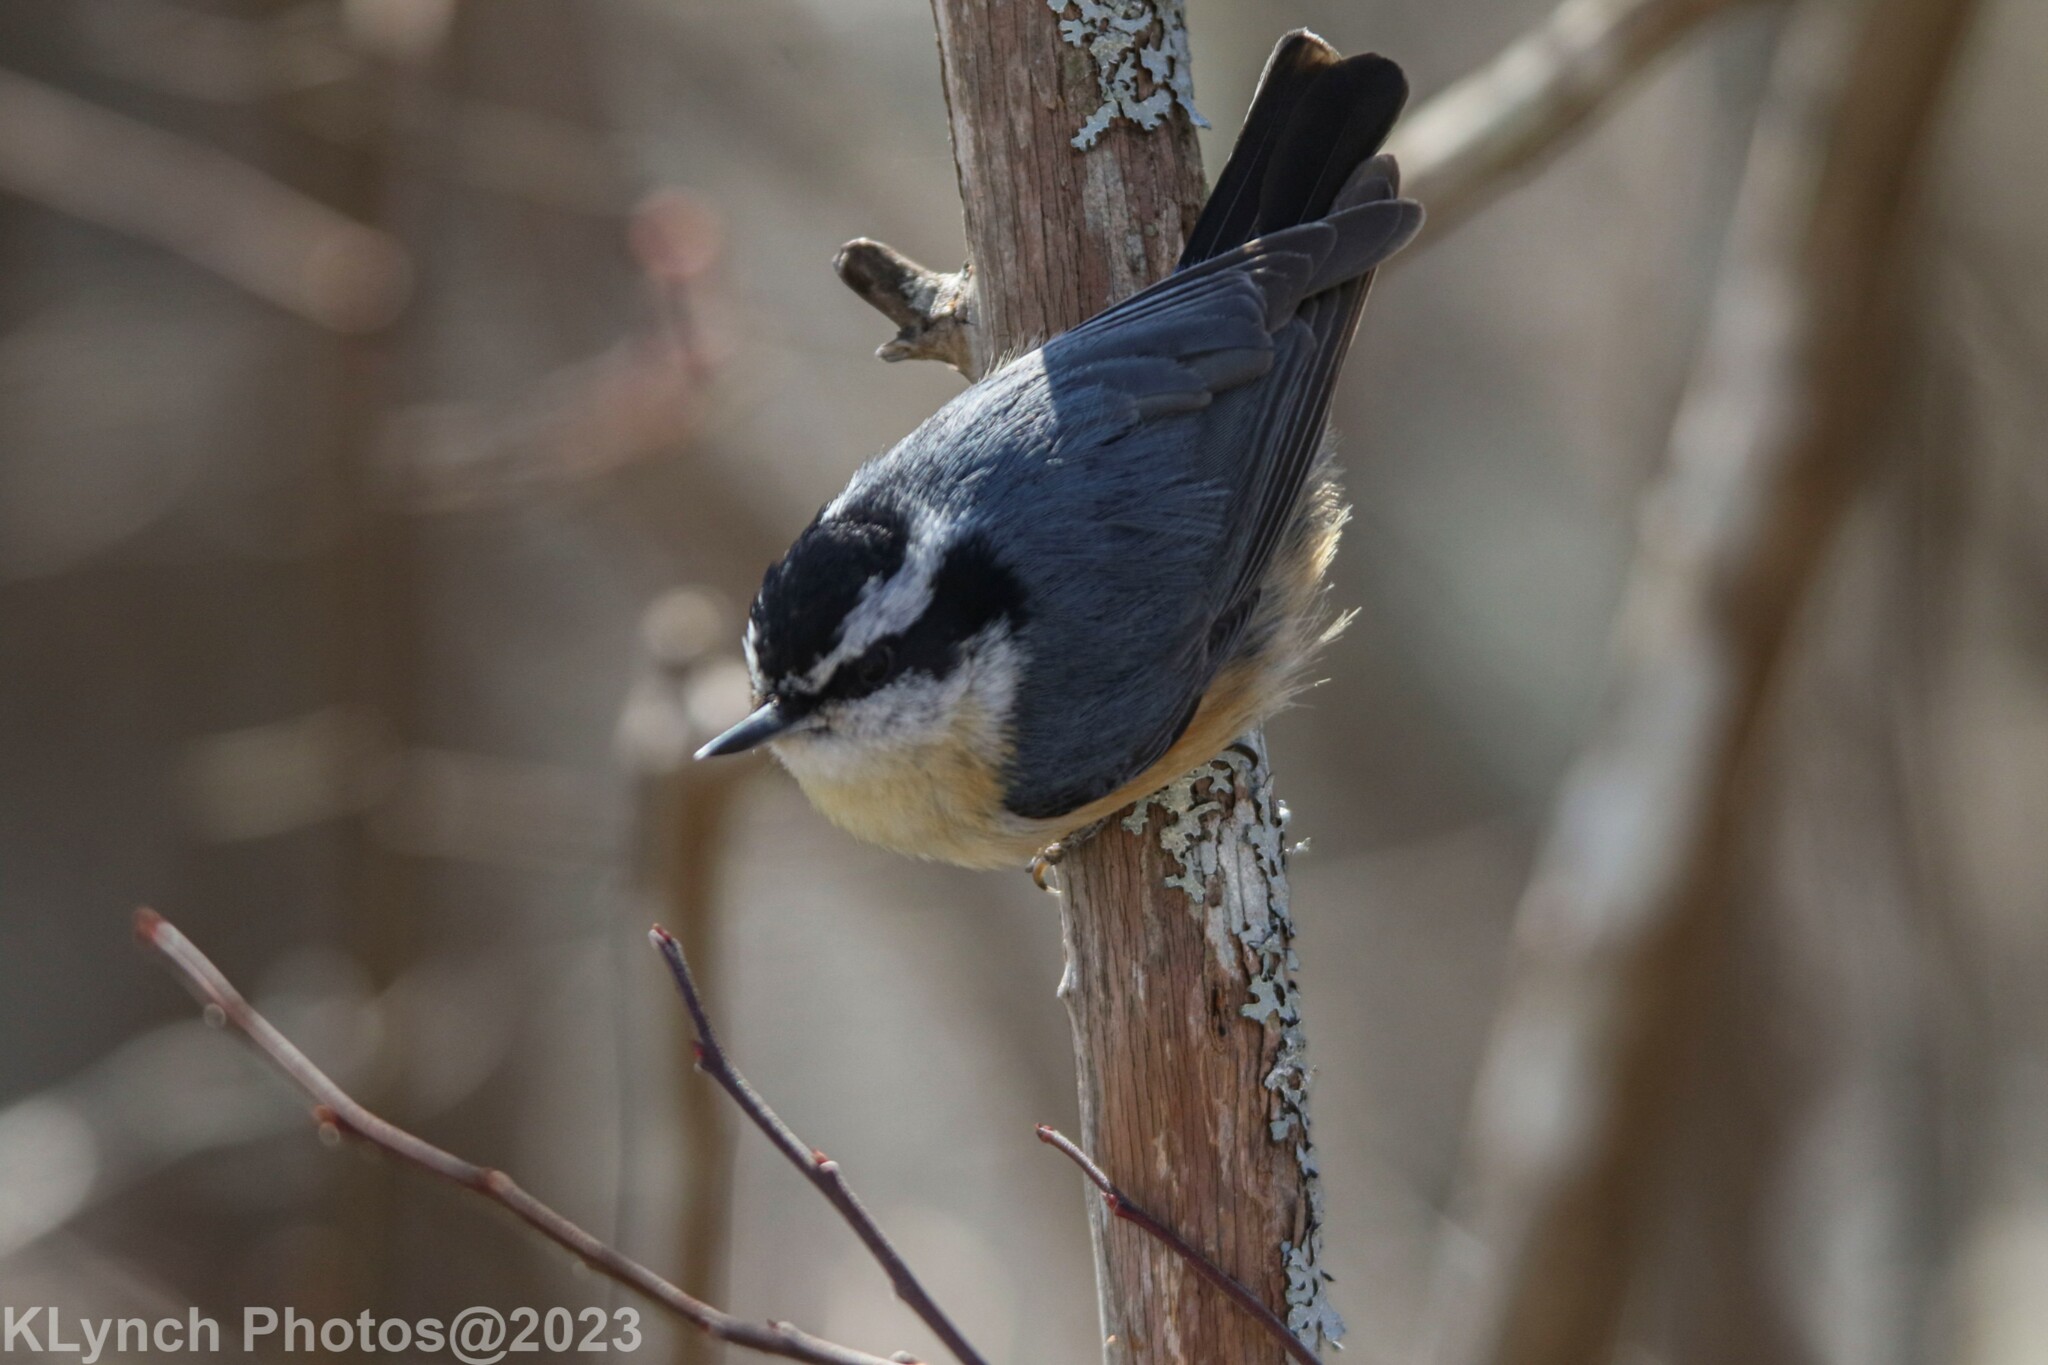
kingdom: Animalia
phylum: Chordata
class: Aves
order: Passeriformes
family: Sittidae
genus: Sitta
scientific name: Sitta canadensis
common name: Red-breasted nuthatch
